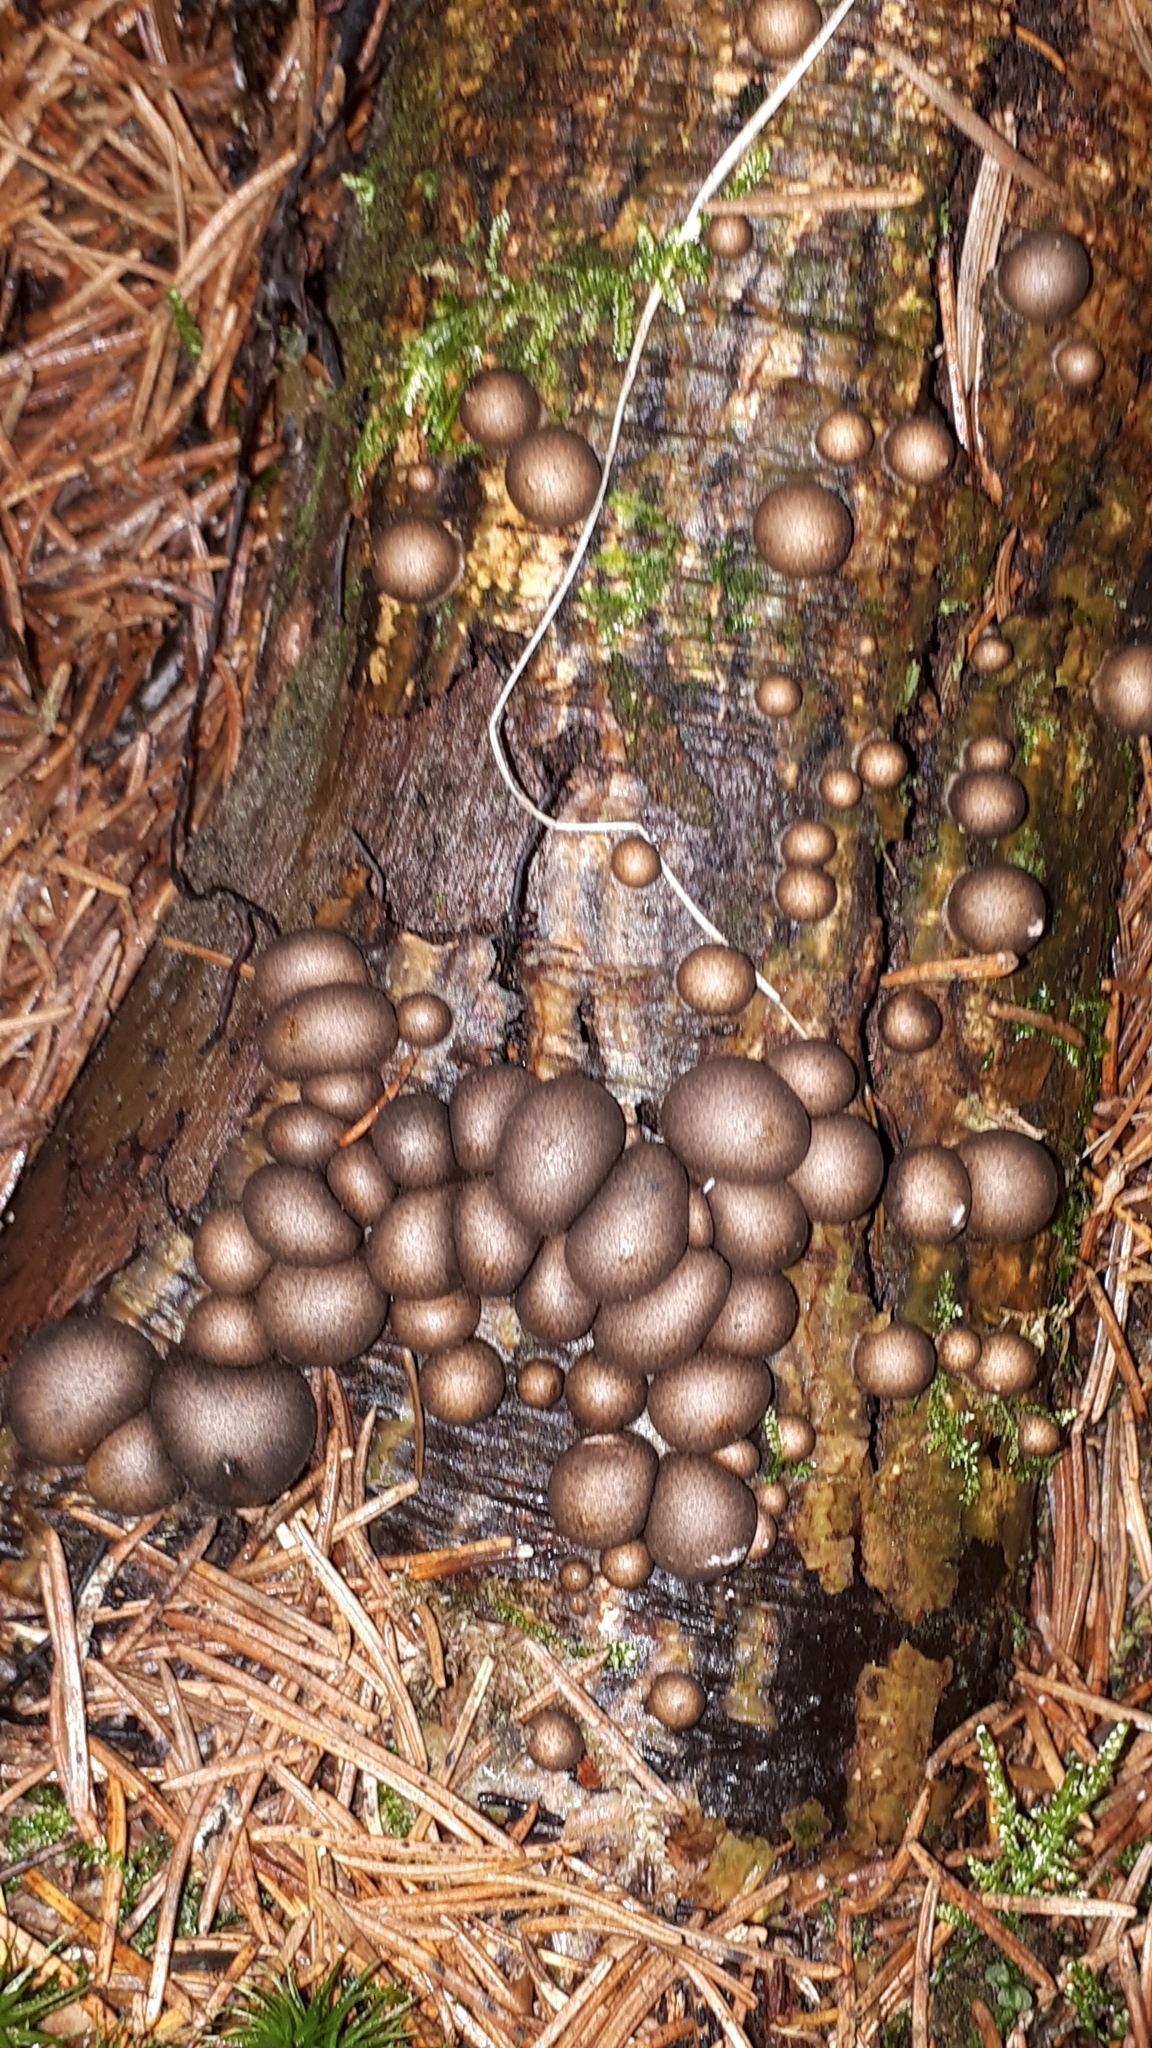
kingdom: Protozoa
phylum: Mycetozoa
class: Myxomycetes
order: Cribrariales
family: Tubiferaceae
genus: Lycogala
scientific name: Lycogala epidendrum
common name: Wolf's milk
